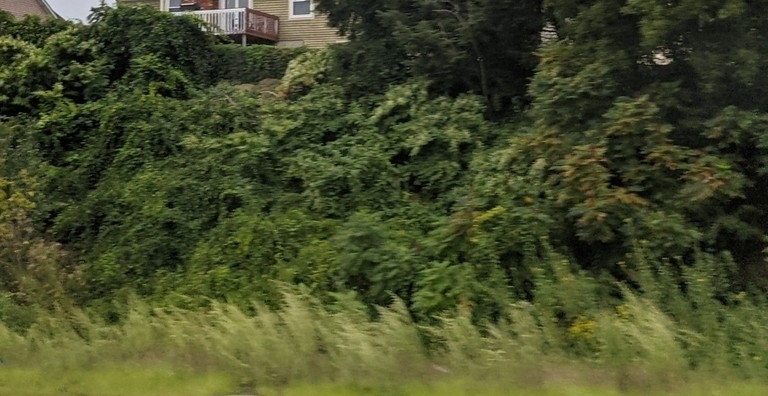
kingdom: Plantae
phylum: Tracheophyta
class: Magnoliopsida
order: Caryophyllales
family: Polygonaceae
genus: Reynoutria
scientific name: Reynoutria japonica
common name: Japanese knotweed
